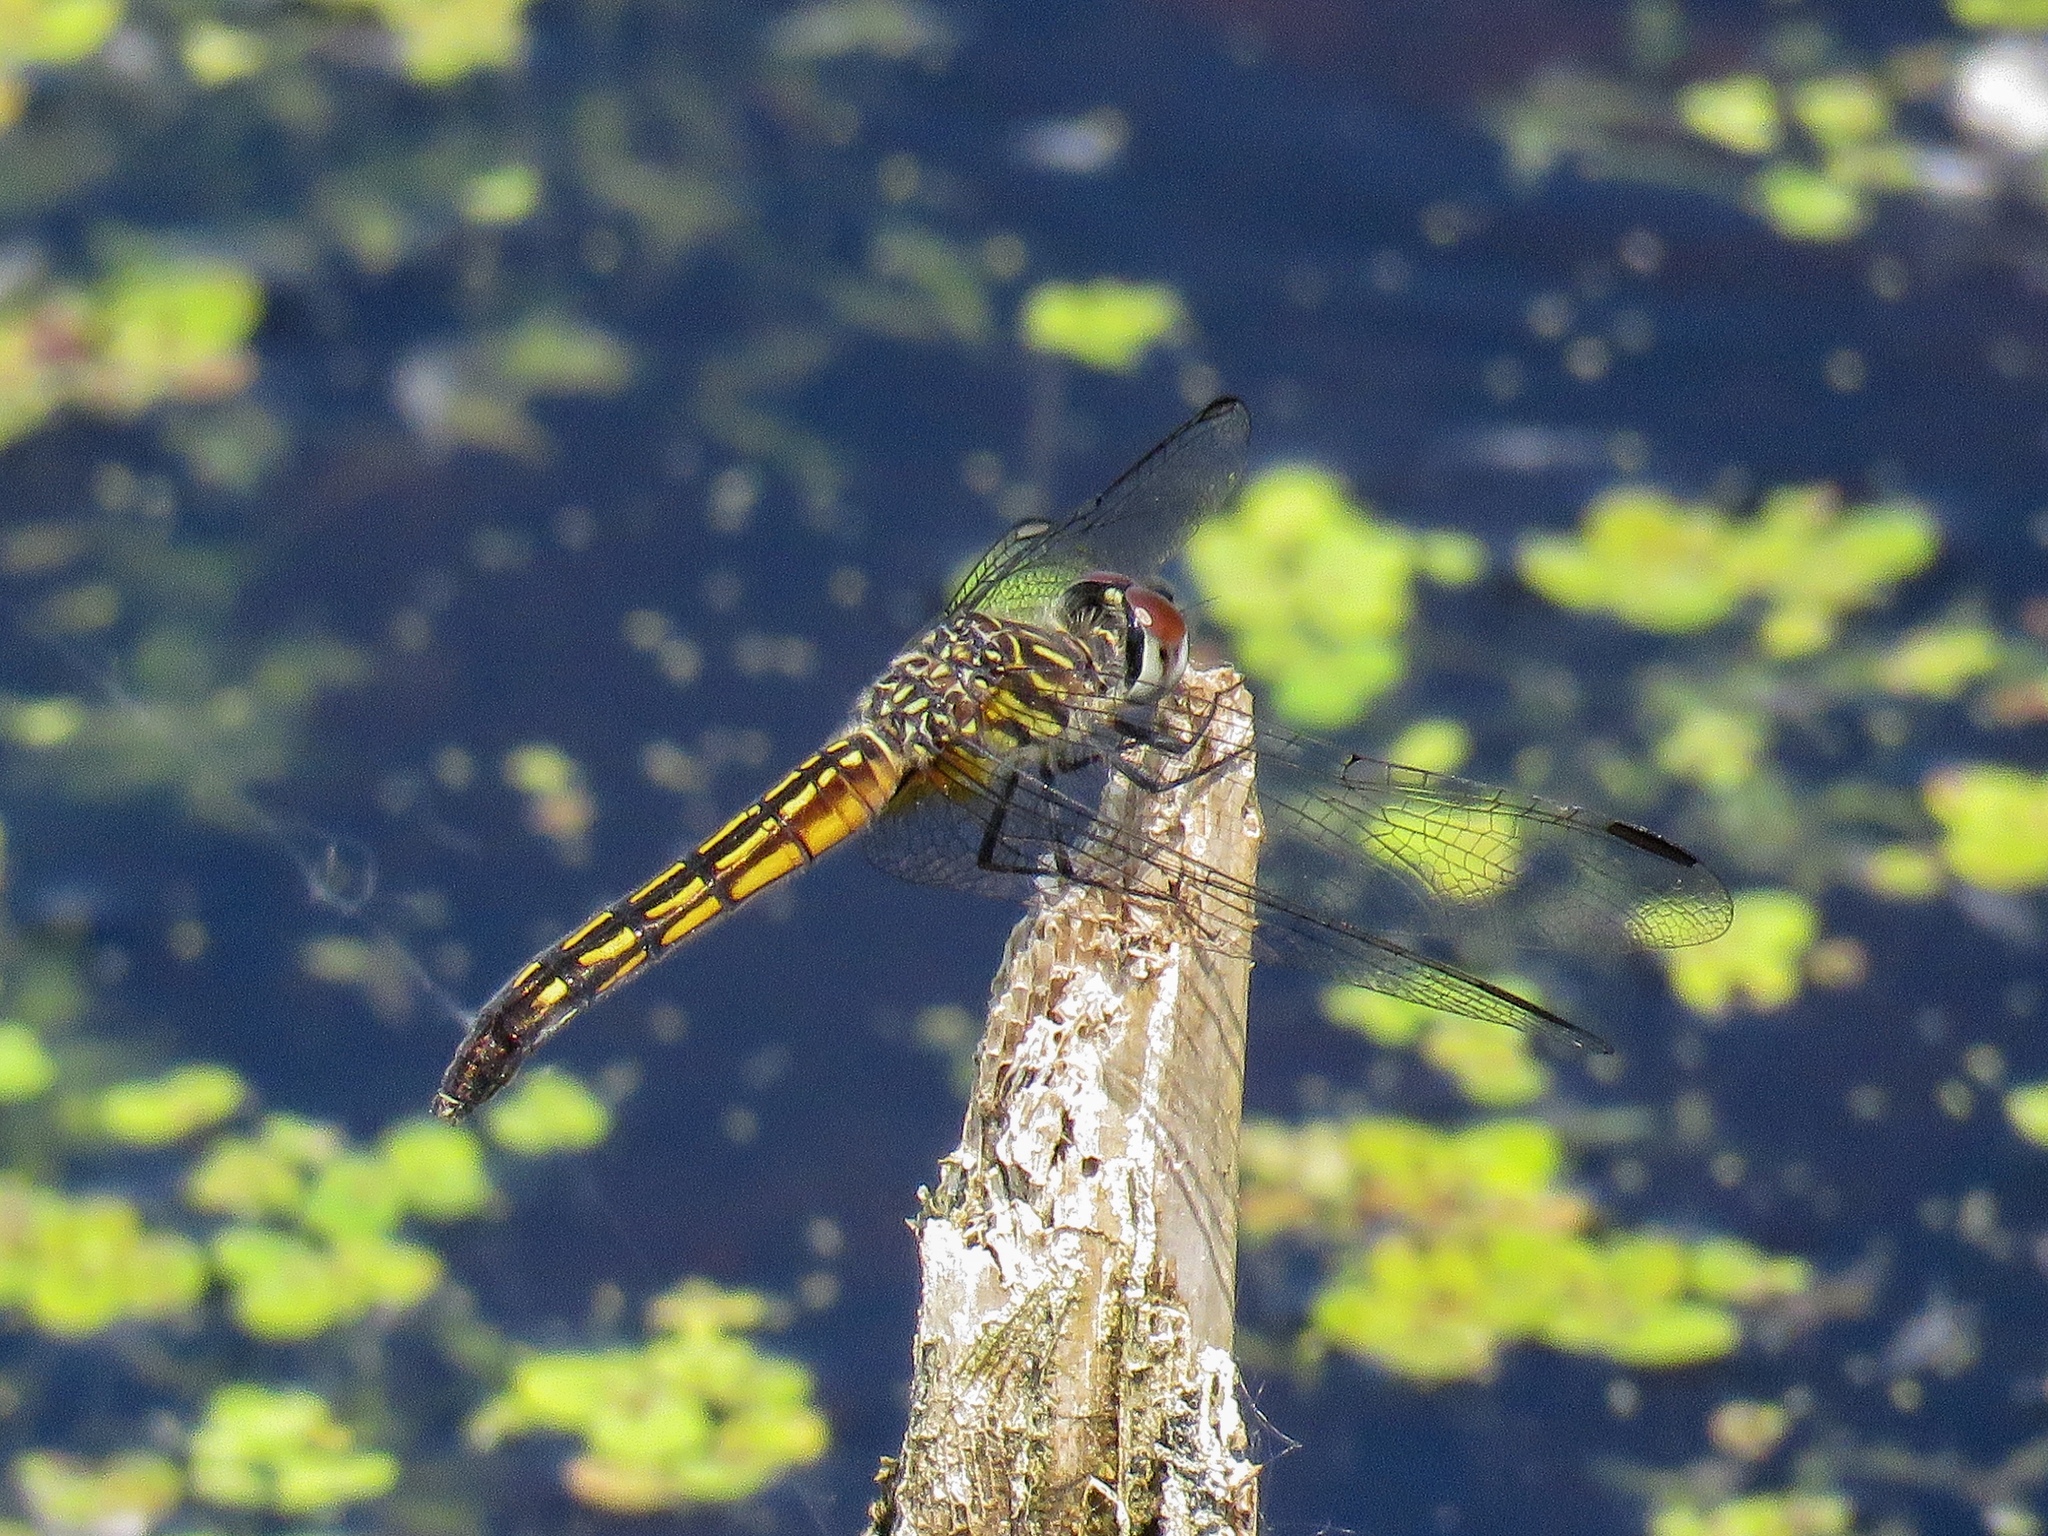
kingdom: Animalia
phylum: Arthropoda
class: Insecta
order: Odonata
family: Libellulidae
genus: Pachydiplax
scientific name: Pachydiplax longipennis
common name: Blue dasher
